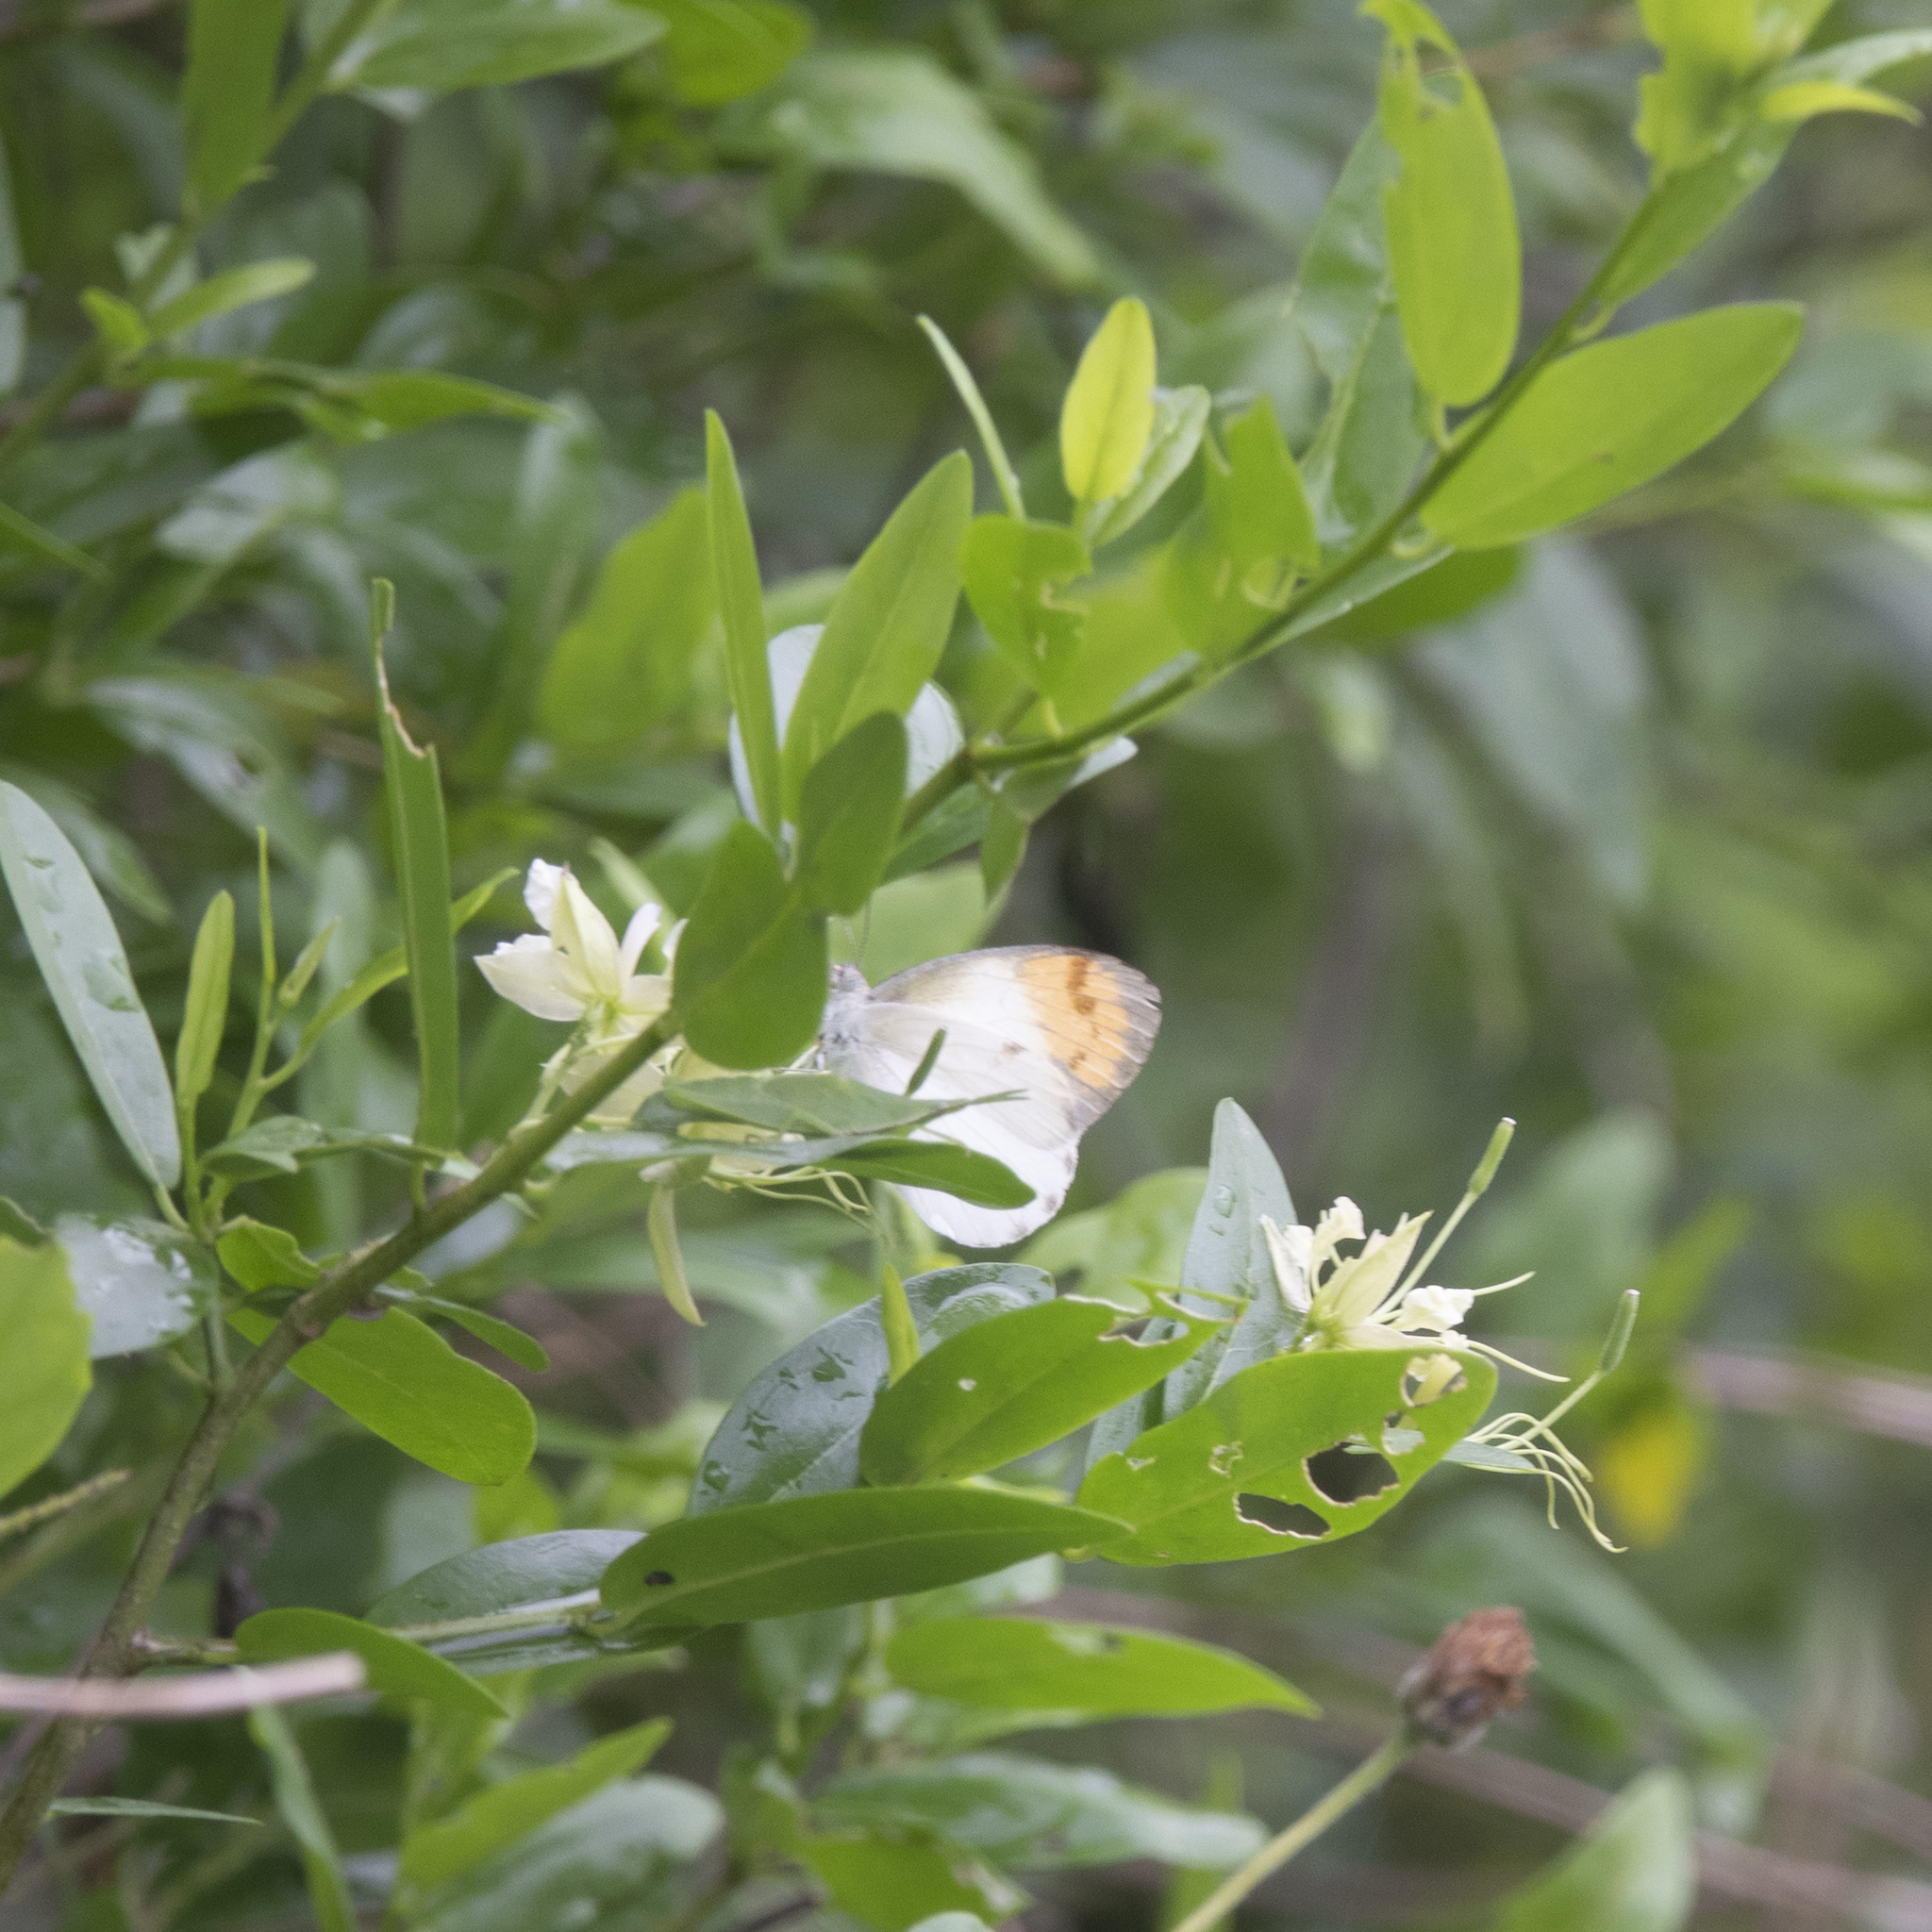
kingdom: Animalia
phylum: Arthropoda
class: Insecta
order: Lepidoptera
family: Pieridae
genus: Colotis
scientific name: Colotis aurora
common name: Plain orange-tip
